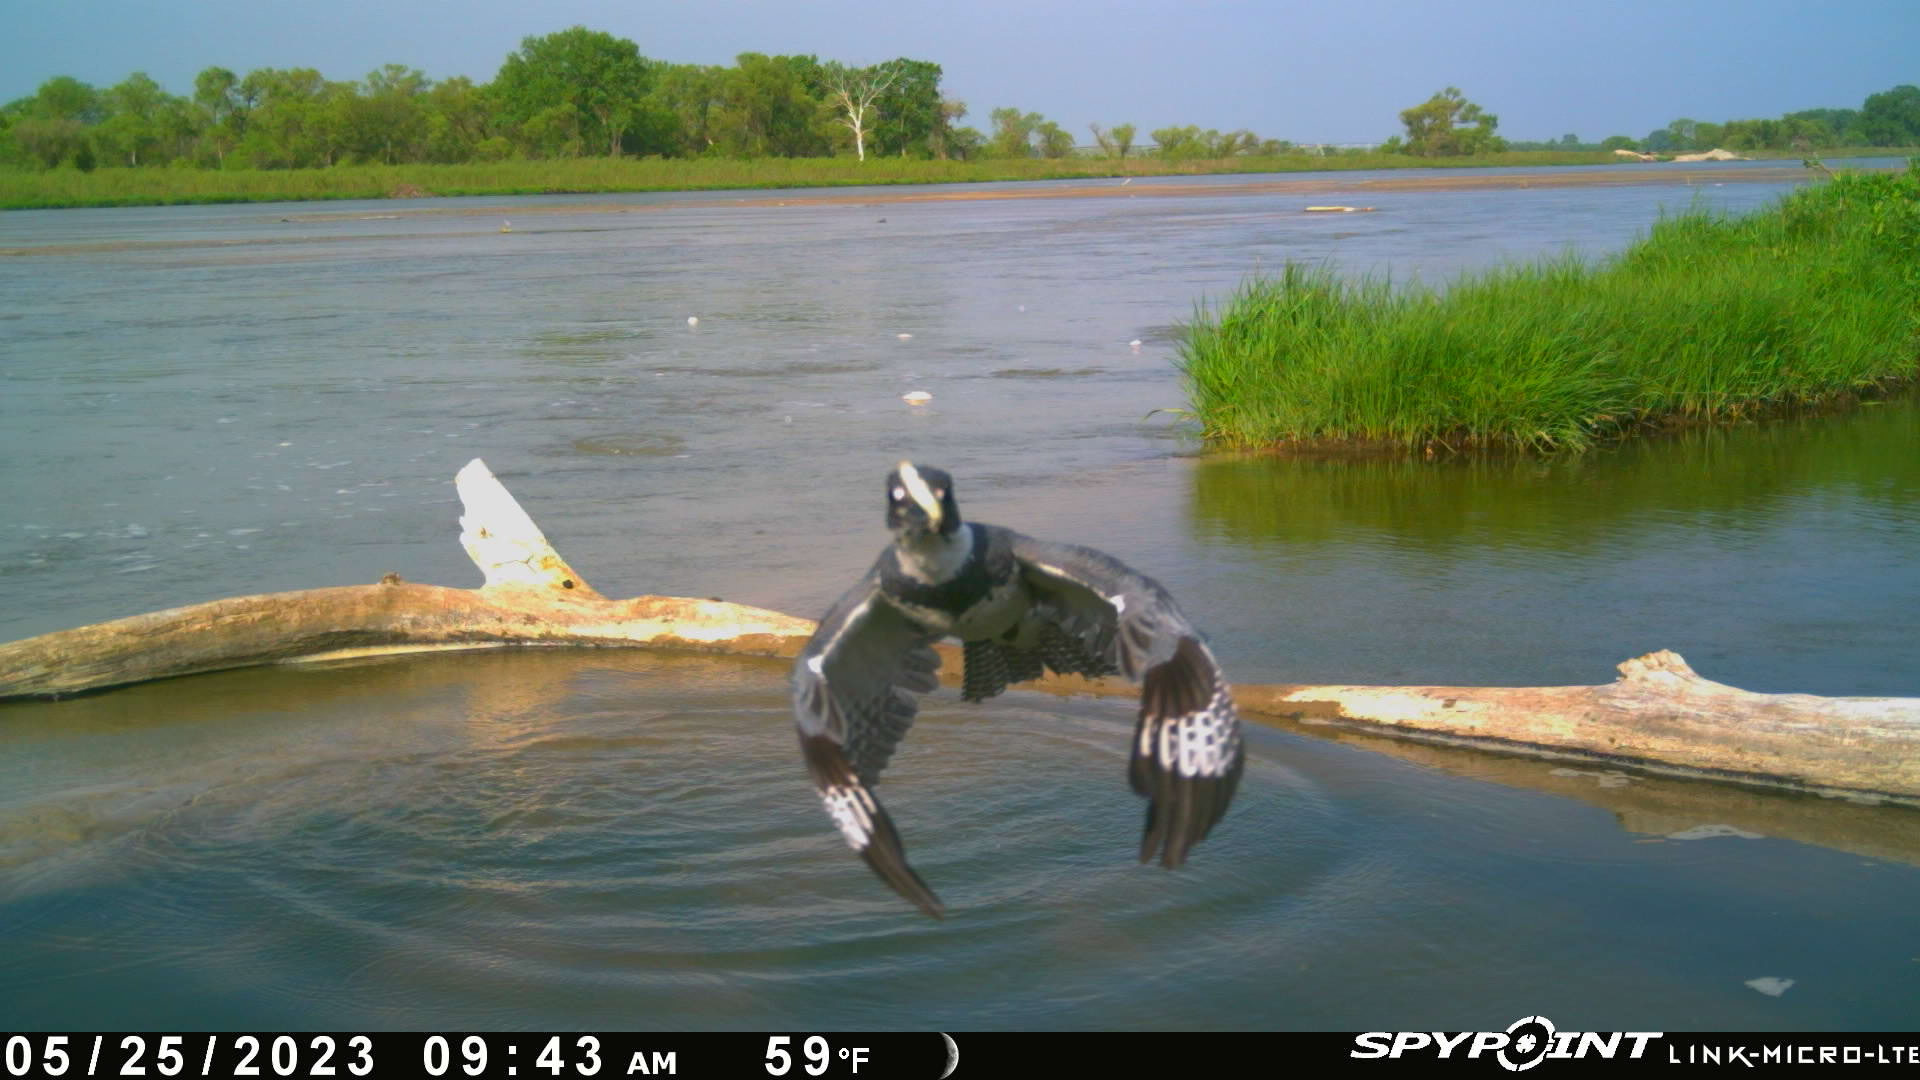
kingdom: Animalia
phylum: Chordata
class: Aves
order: Coraciiformes
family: Alcedinidae
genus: Megaceryle
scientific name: Megaceryle alcyon
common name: Belted kingfisher
